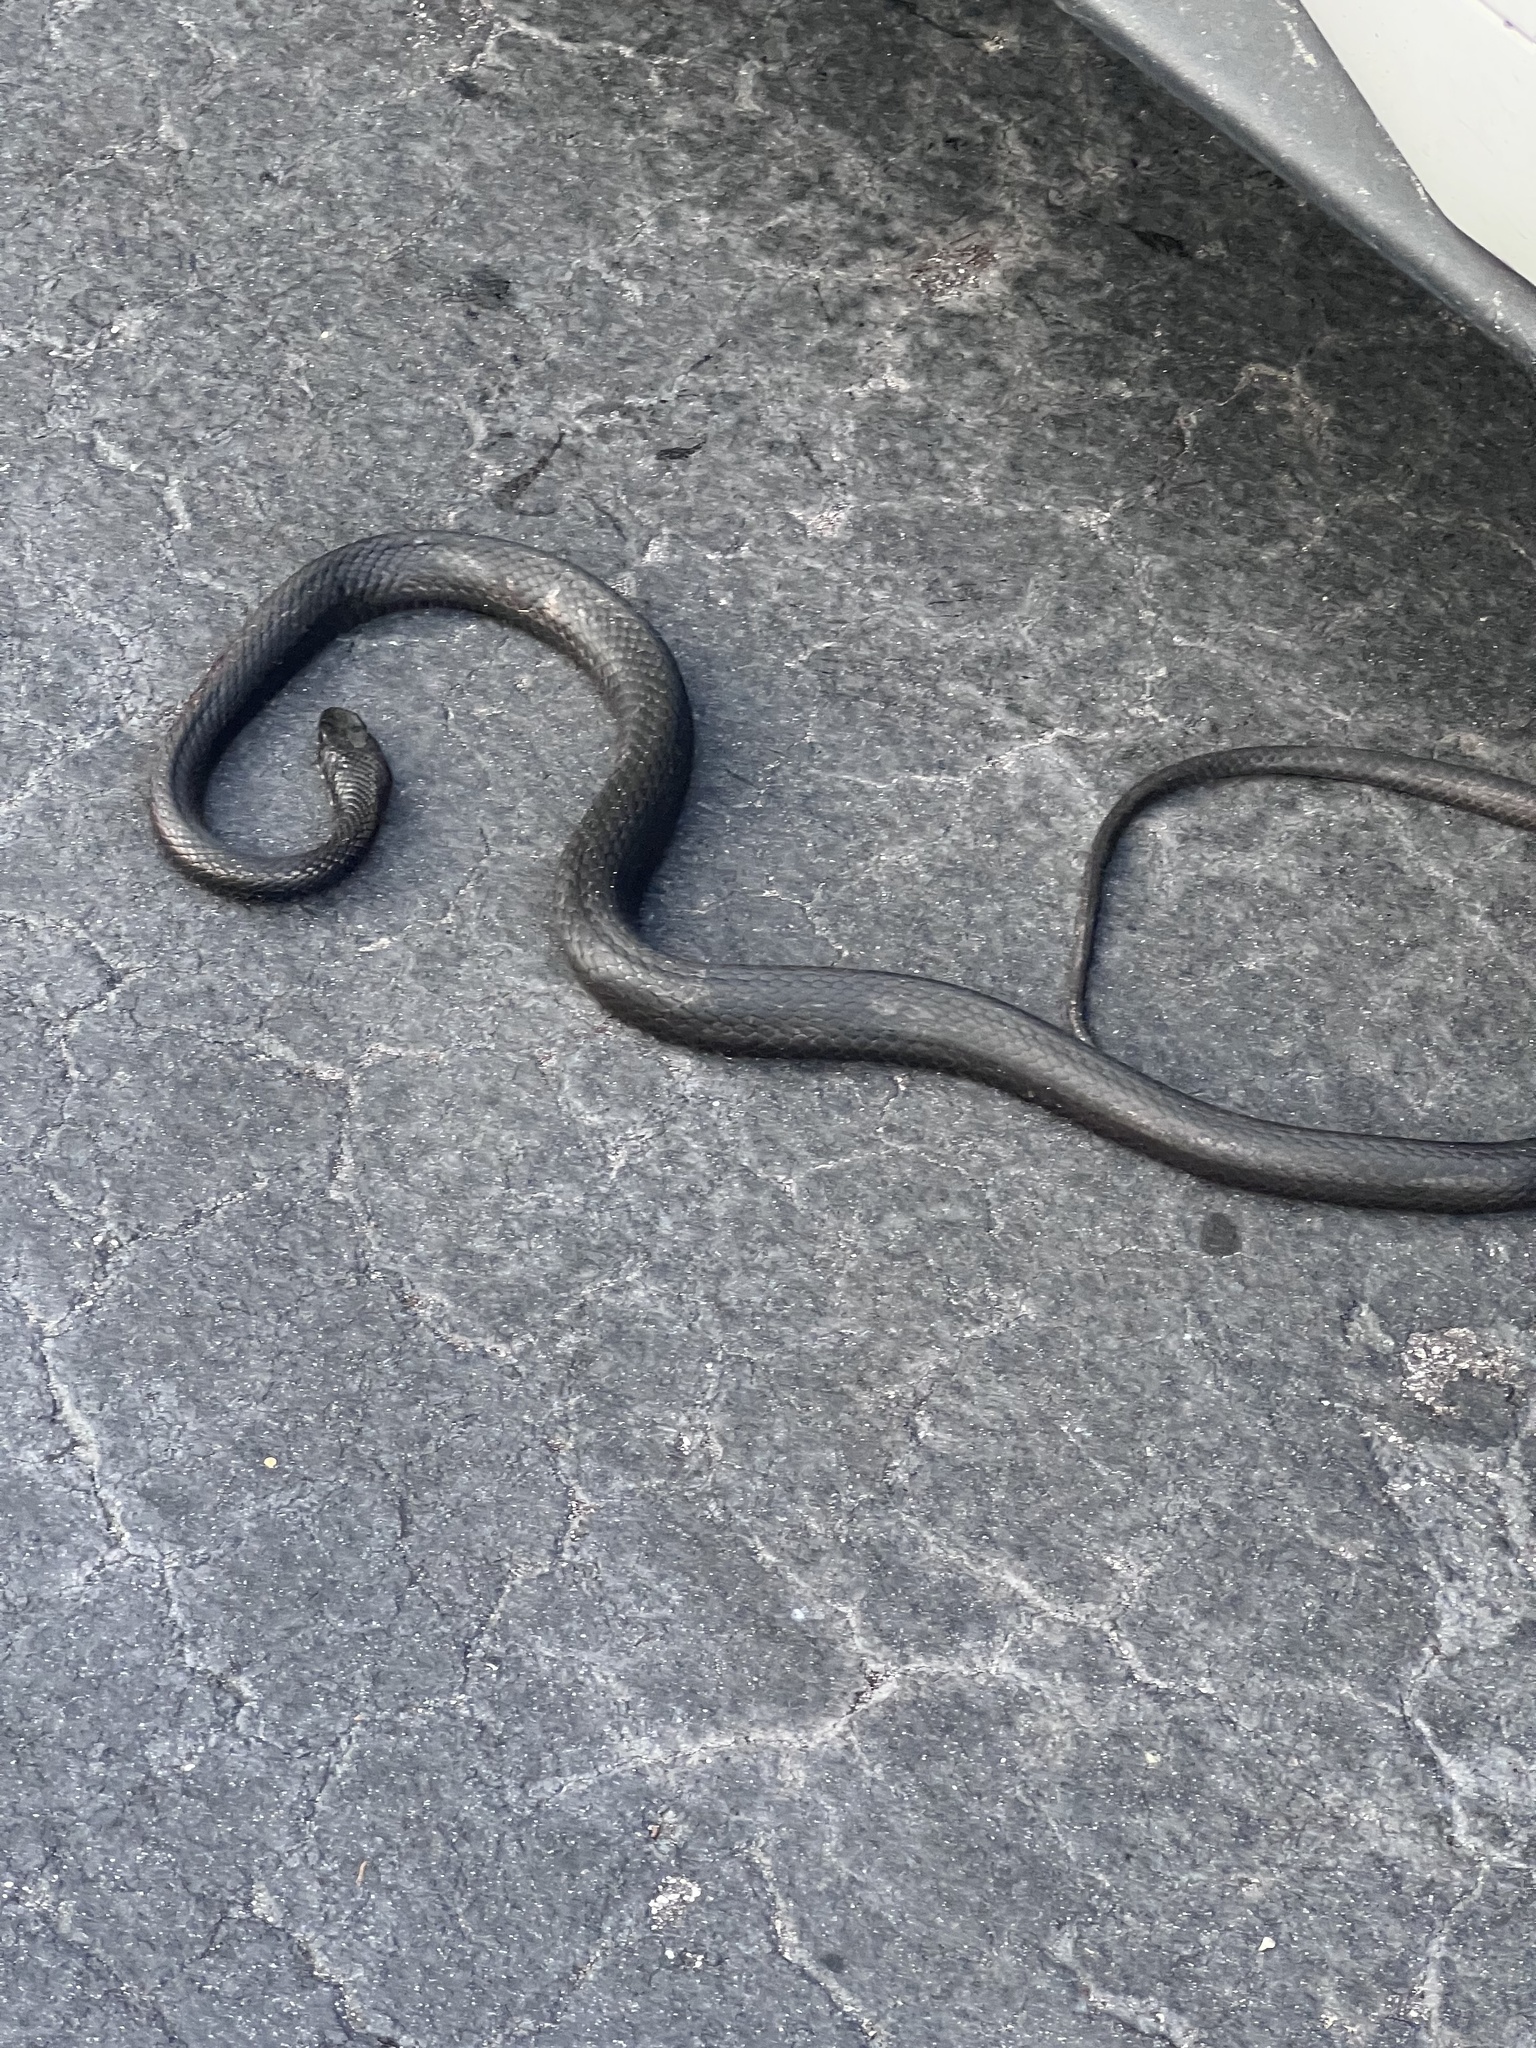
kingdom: Animalia
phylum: Chordata
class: Squamata
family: Colubridae
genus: Coluber
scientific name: Coluber constrictor
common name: Eastern racer
